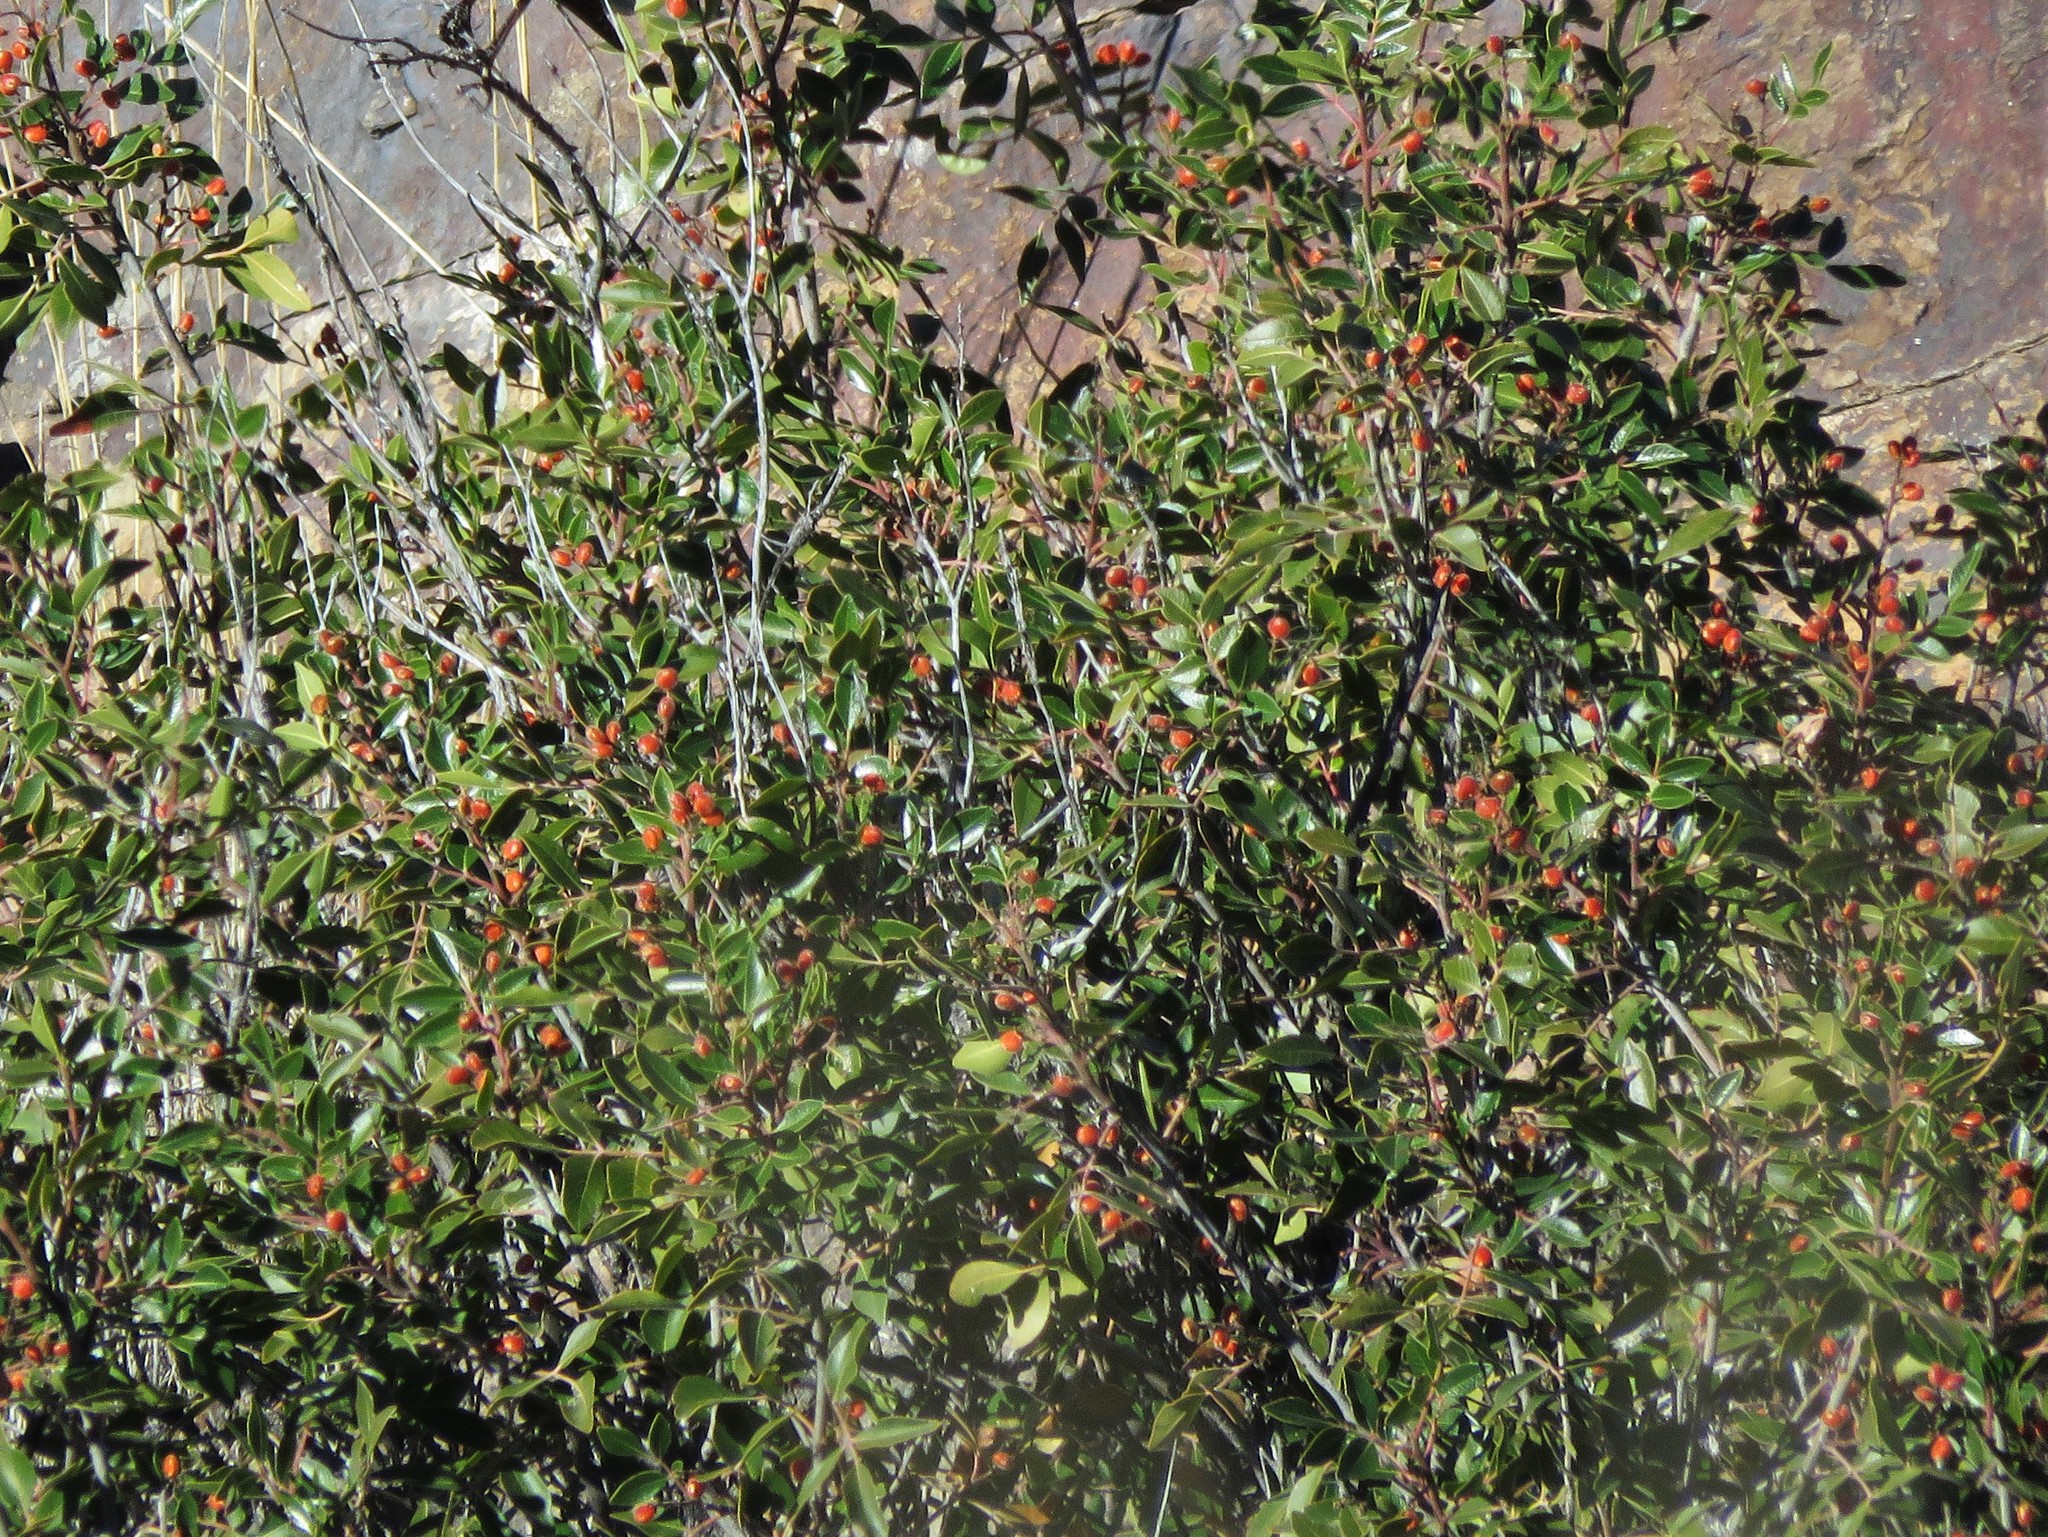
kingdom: Plantae
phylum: Tracheophyta
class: Magnoliopsida
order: Sapindales
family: Anacardiaceae
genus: Rhus
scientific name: Rhus virens
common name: Evergreen sumac
